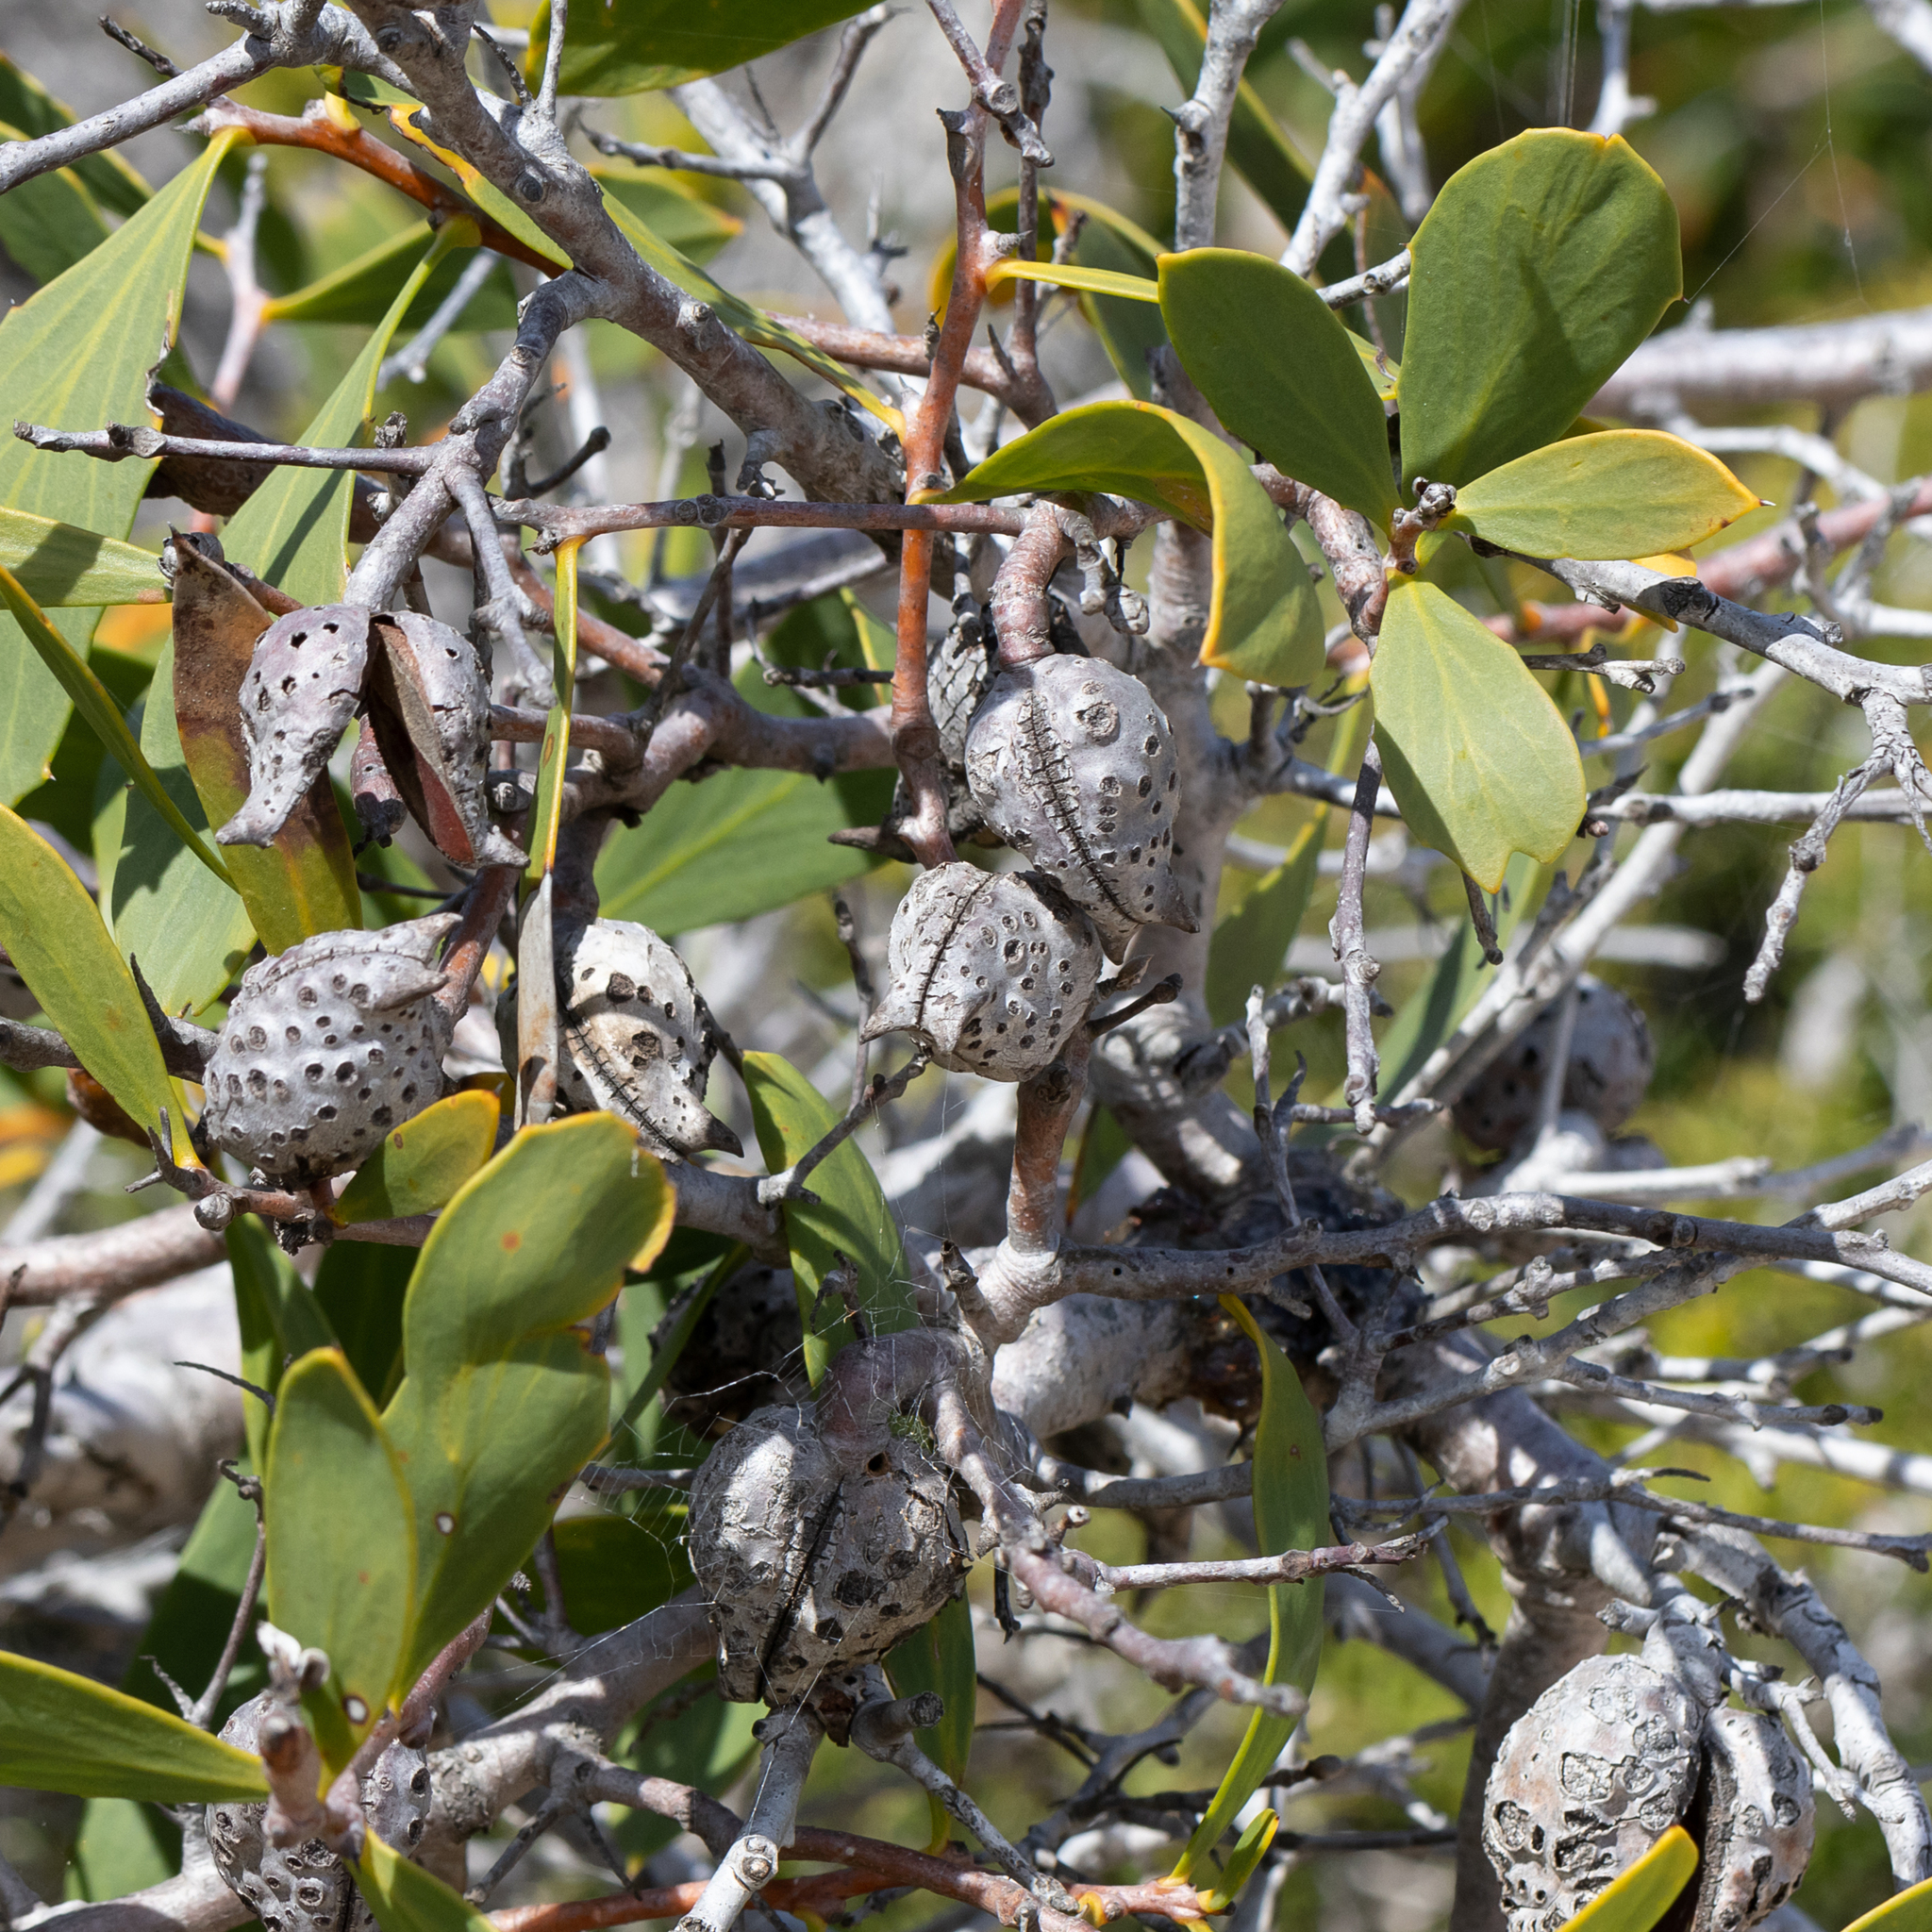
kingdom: Plantae
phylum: Tracheophyta
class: Magnoliopsida
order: Proteales
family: Proteaceae
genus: Hakea
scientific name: Hakea nitida
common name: Frog hakea
